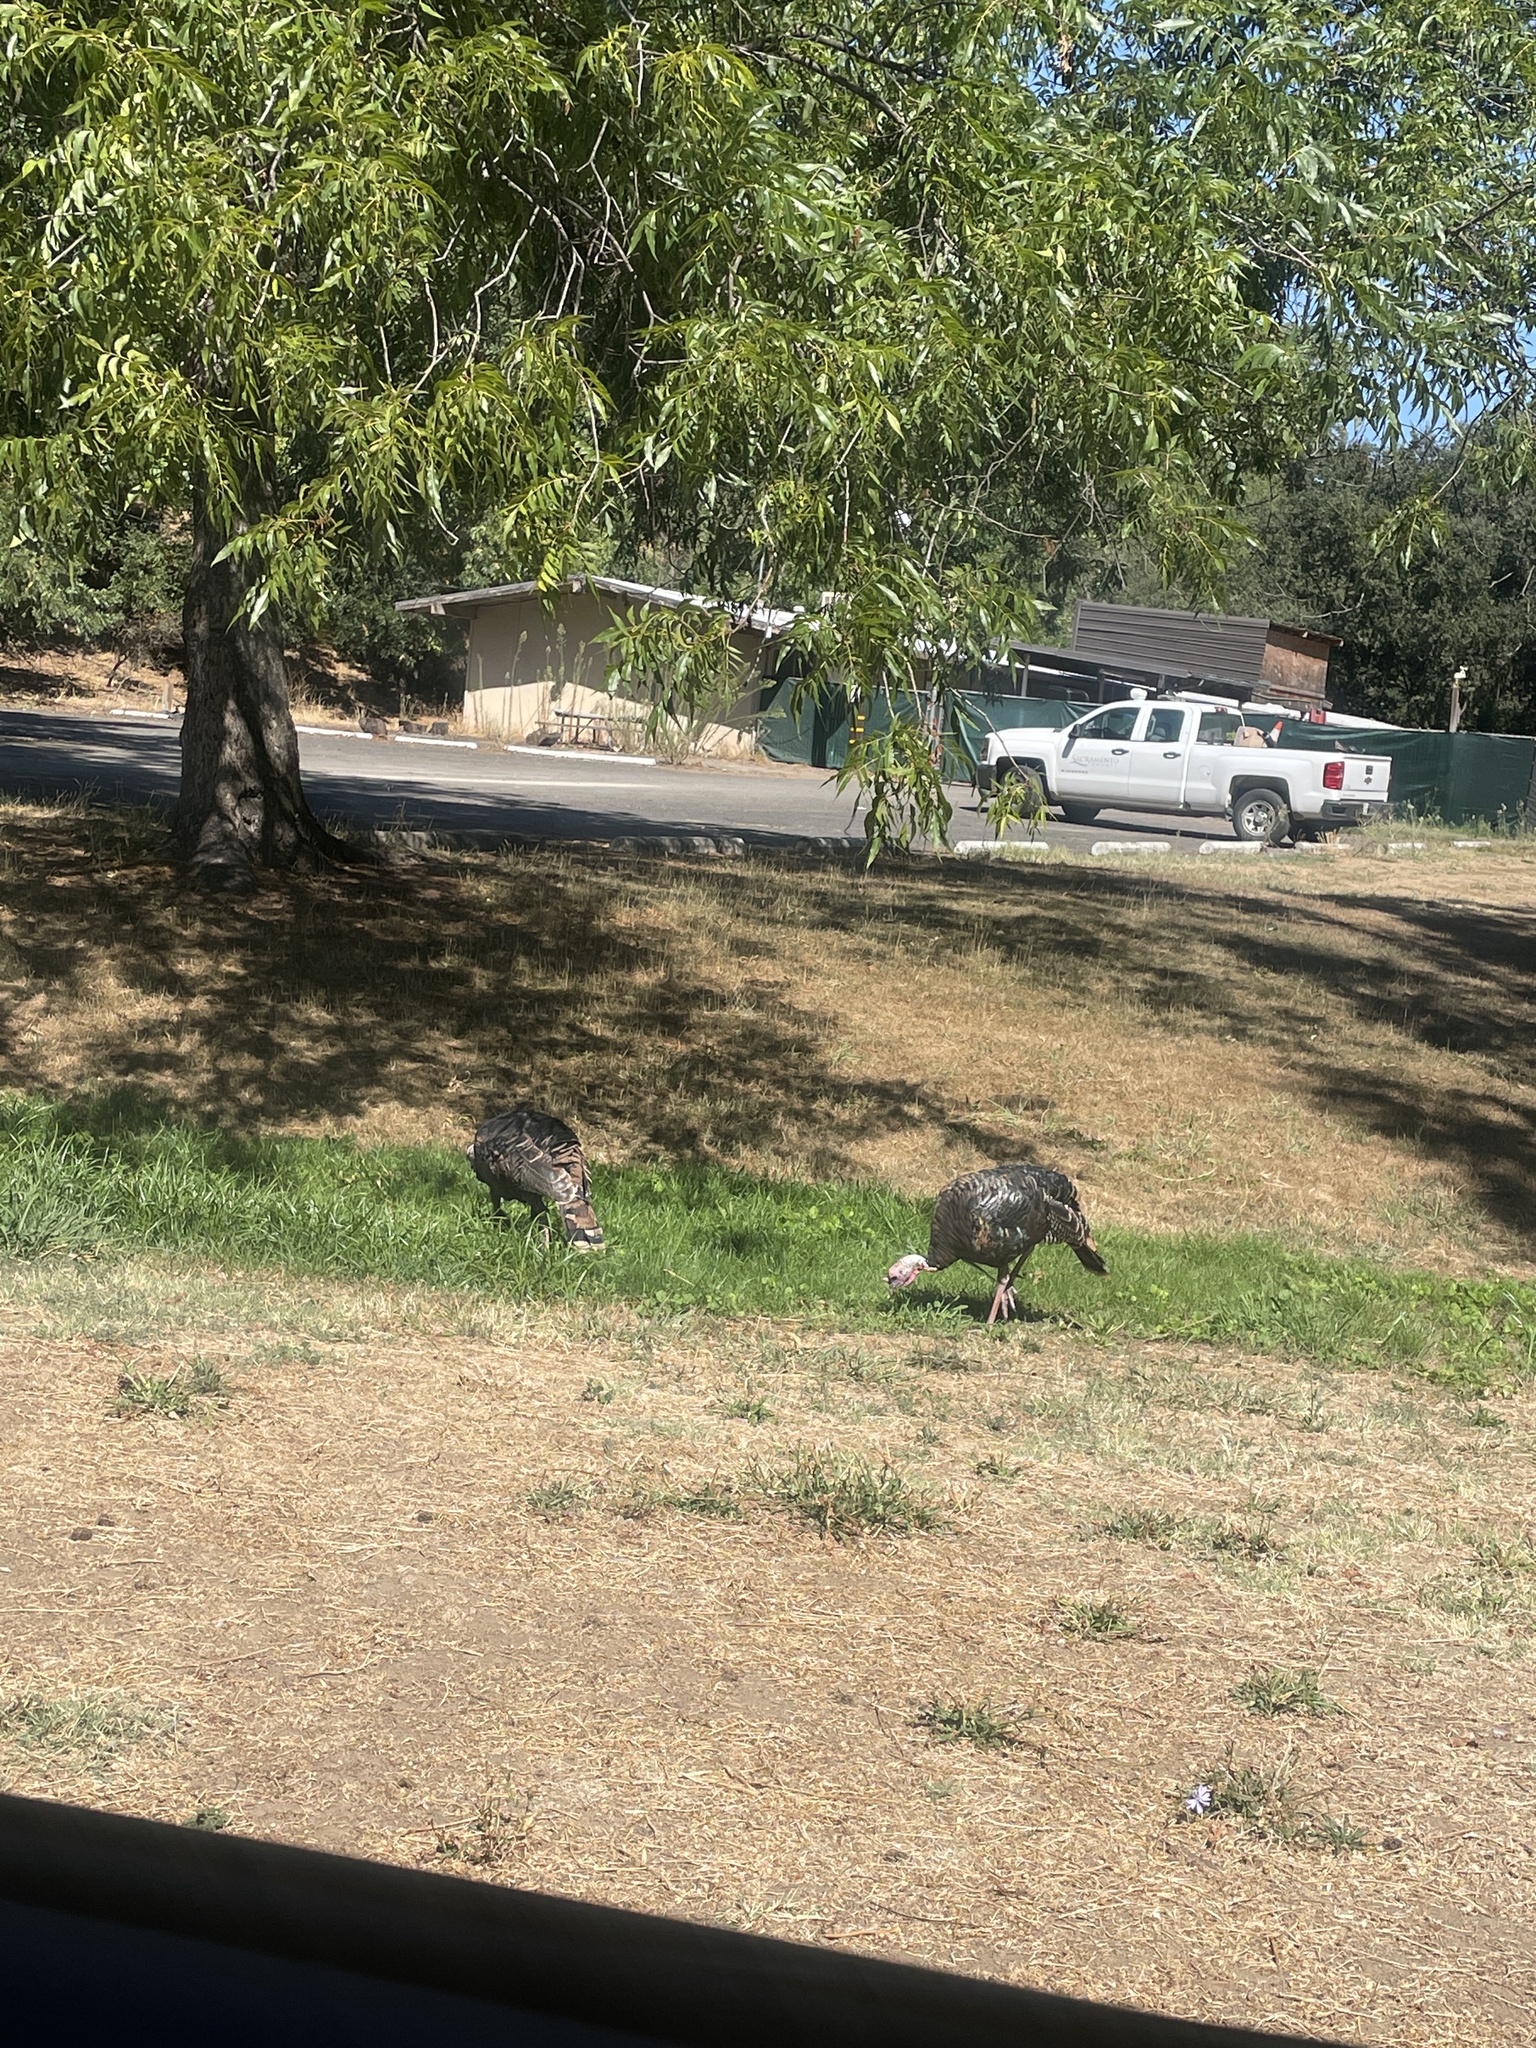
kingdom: Animalia
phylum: Chordata
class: Aves
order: Galliformes
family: Phasianidae
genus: Meleagris
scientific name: Meleagris gallopavo
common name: Wild turkey
